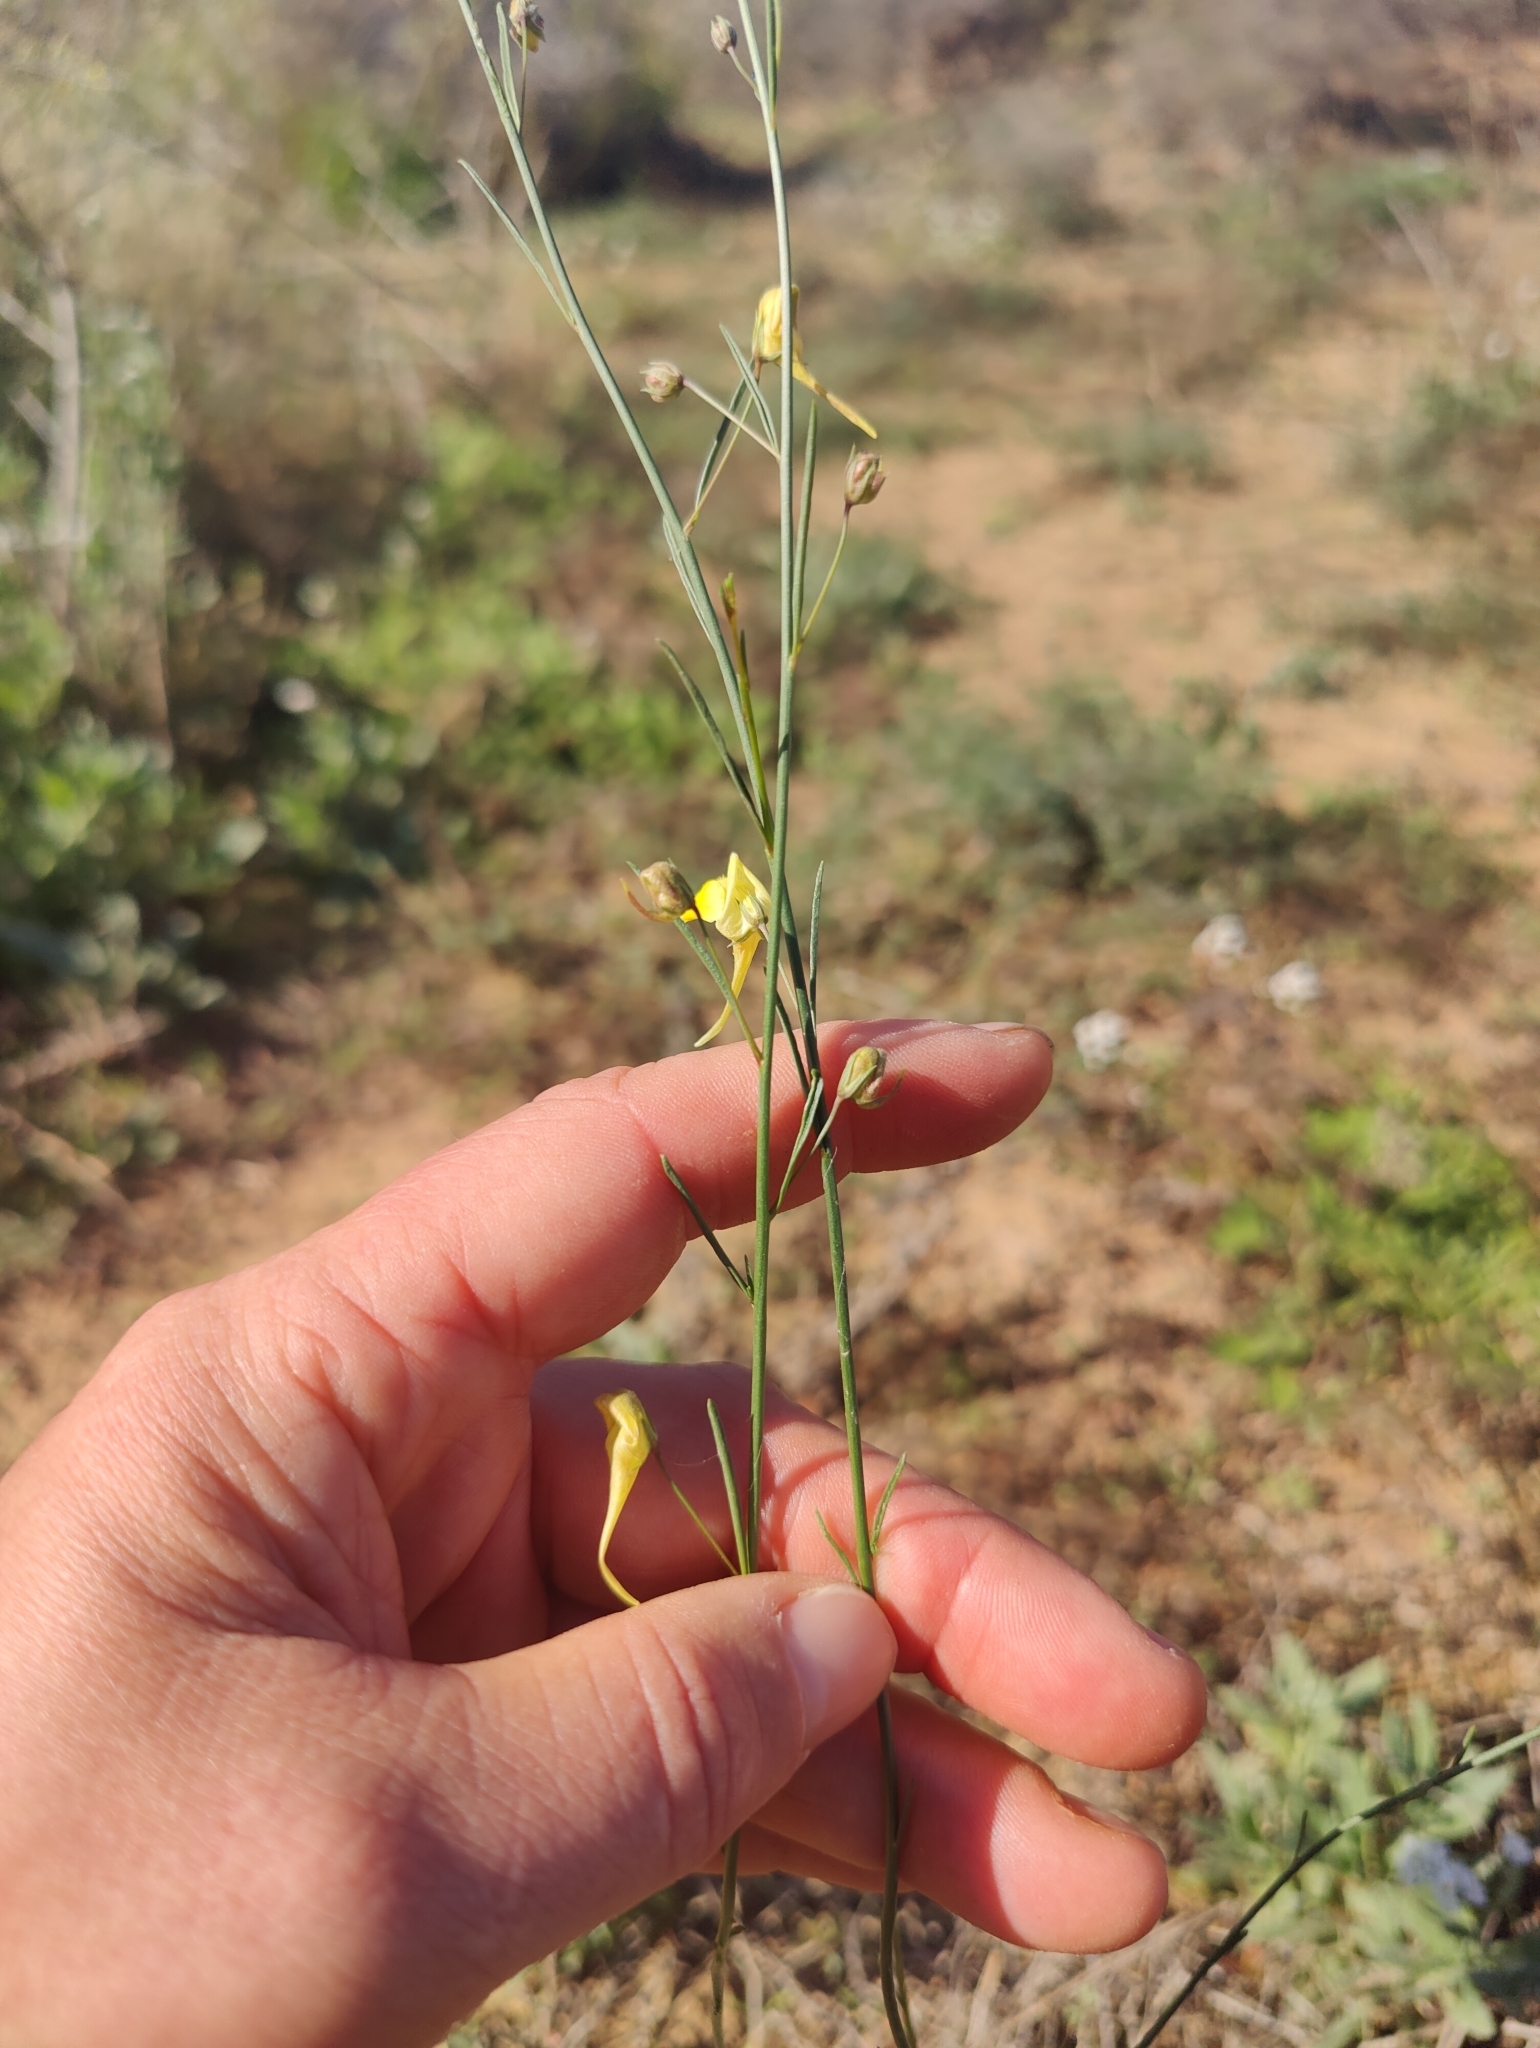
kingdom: Plantae
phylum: Tracheophyta
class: Magnoliopsida
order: Lamiales
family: Plantaginaceae
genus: Nanorrhinum
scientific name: Nanorrhinum scoparium
